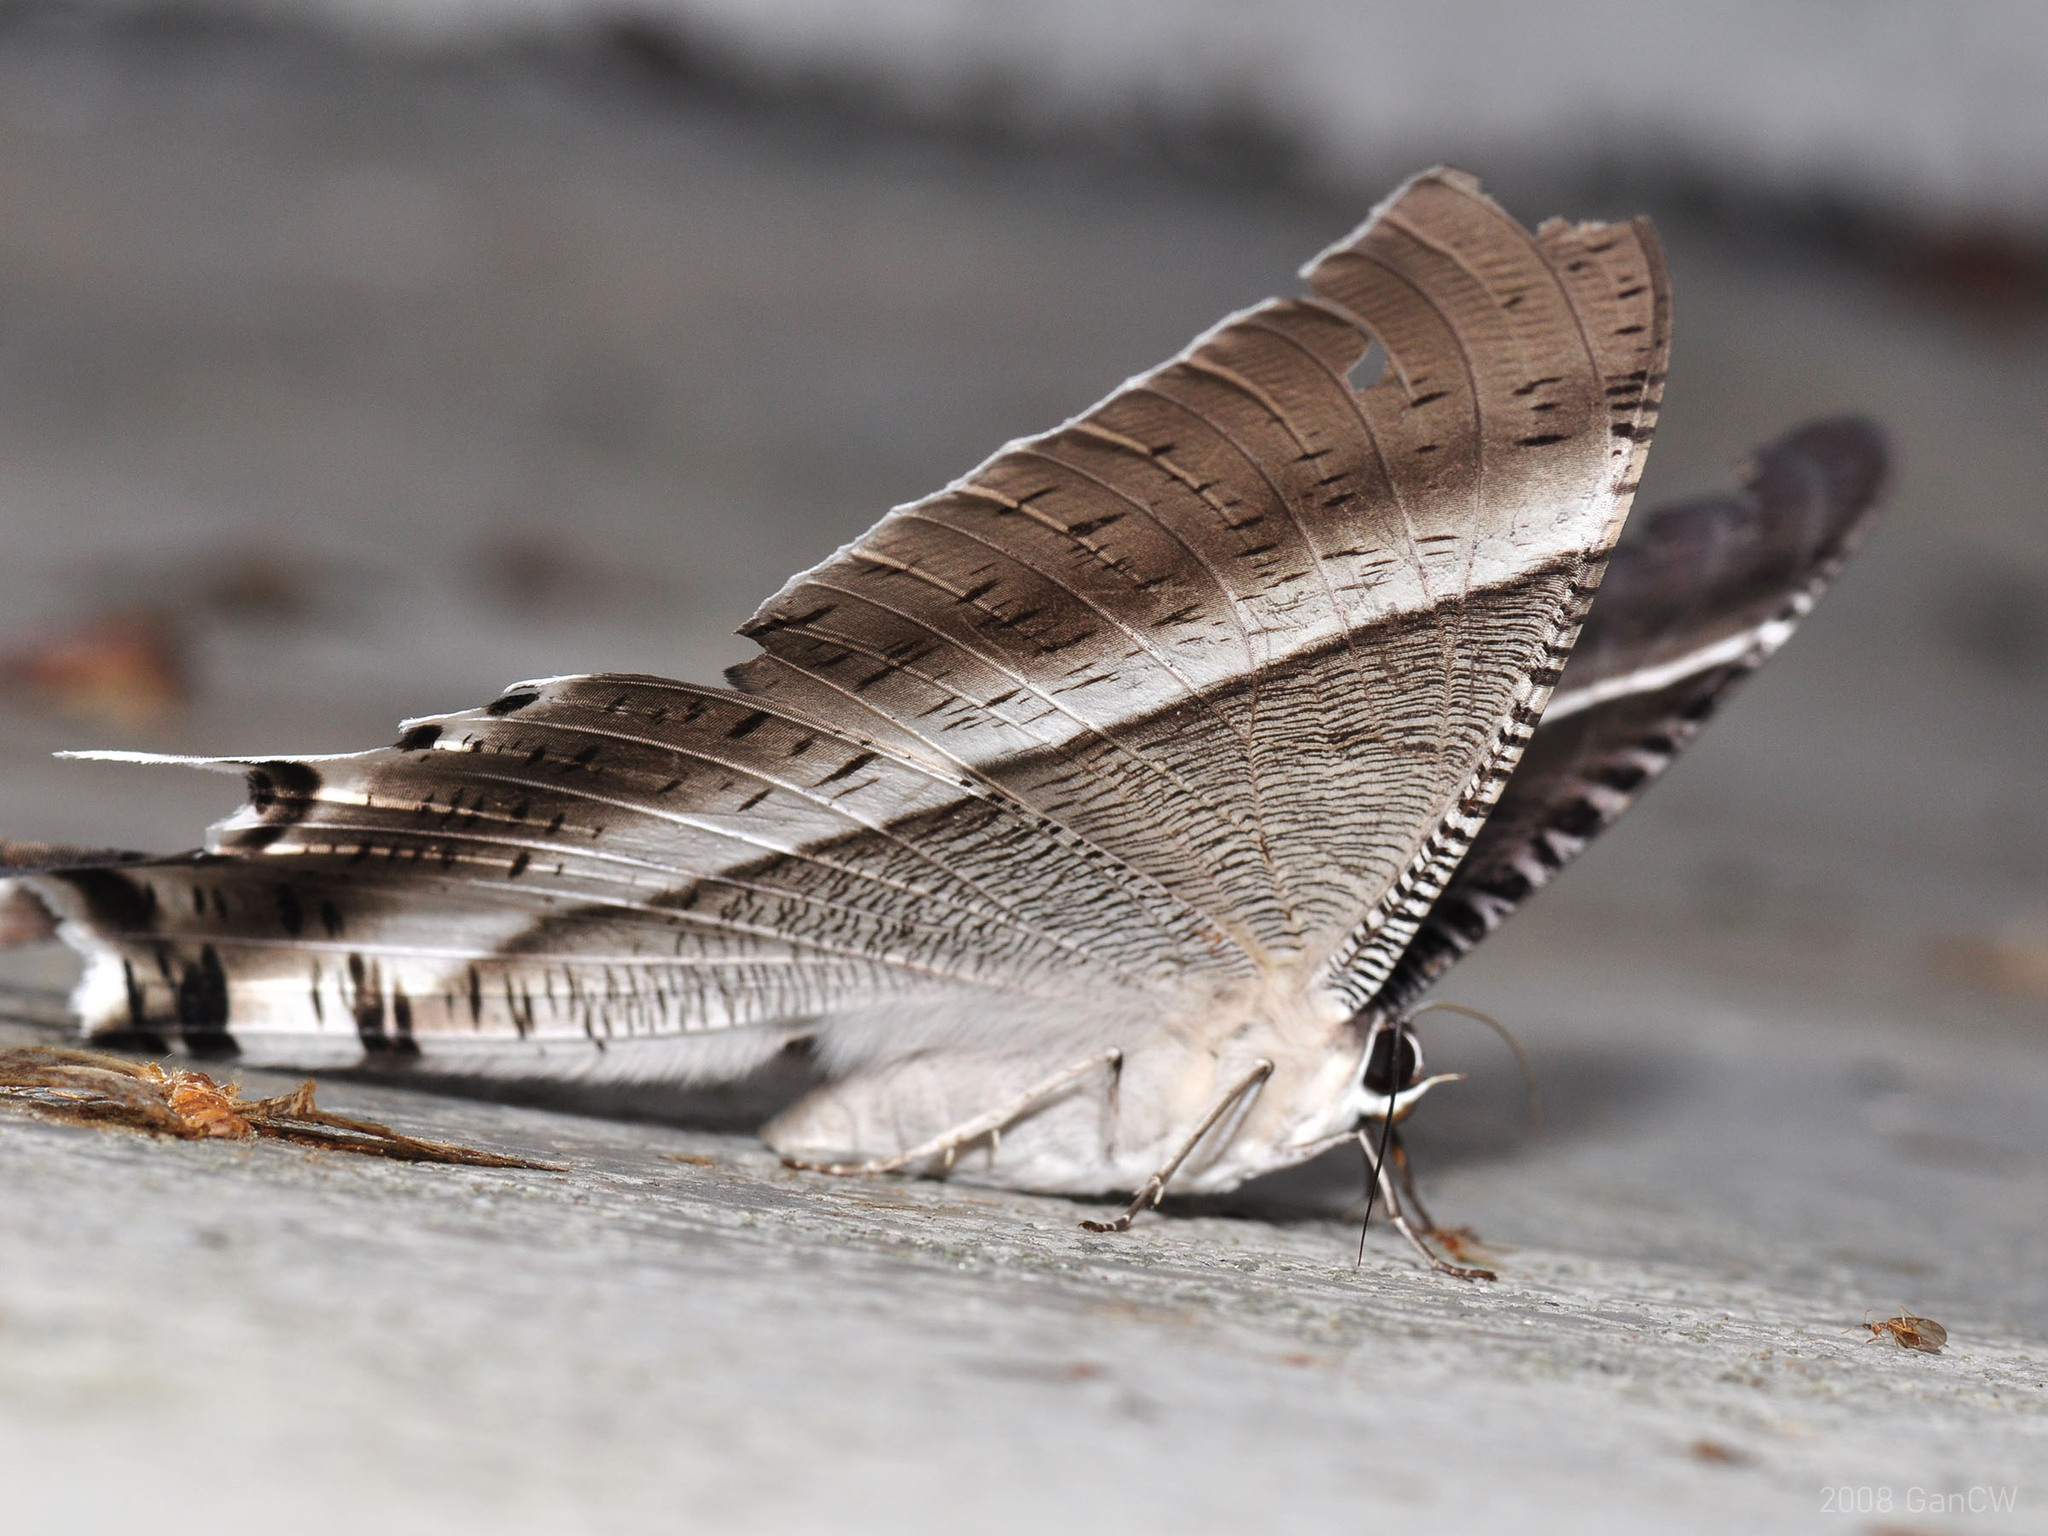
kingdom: Animalia
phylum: Arthropoda
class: Insecta
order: Lepidoptera
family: Uraniidae
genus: Lyssa
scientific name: Lyssa zampa
